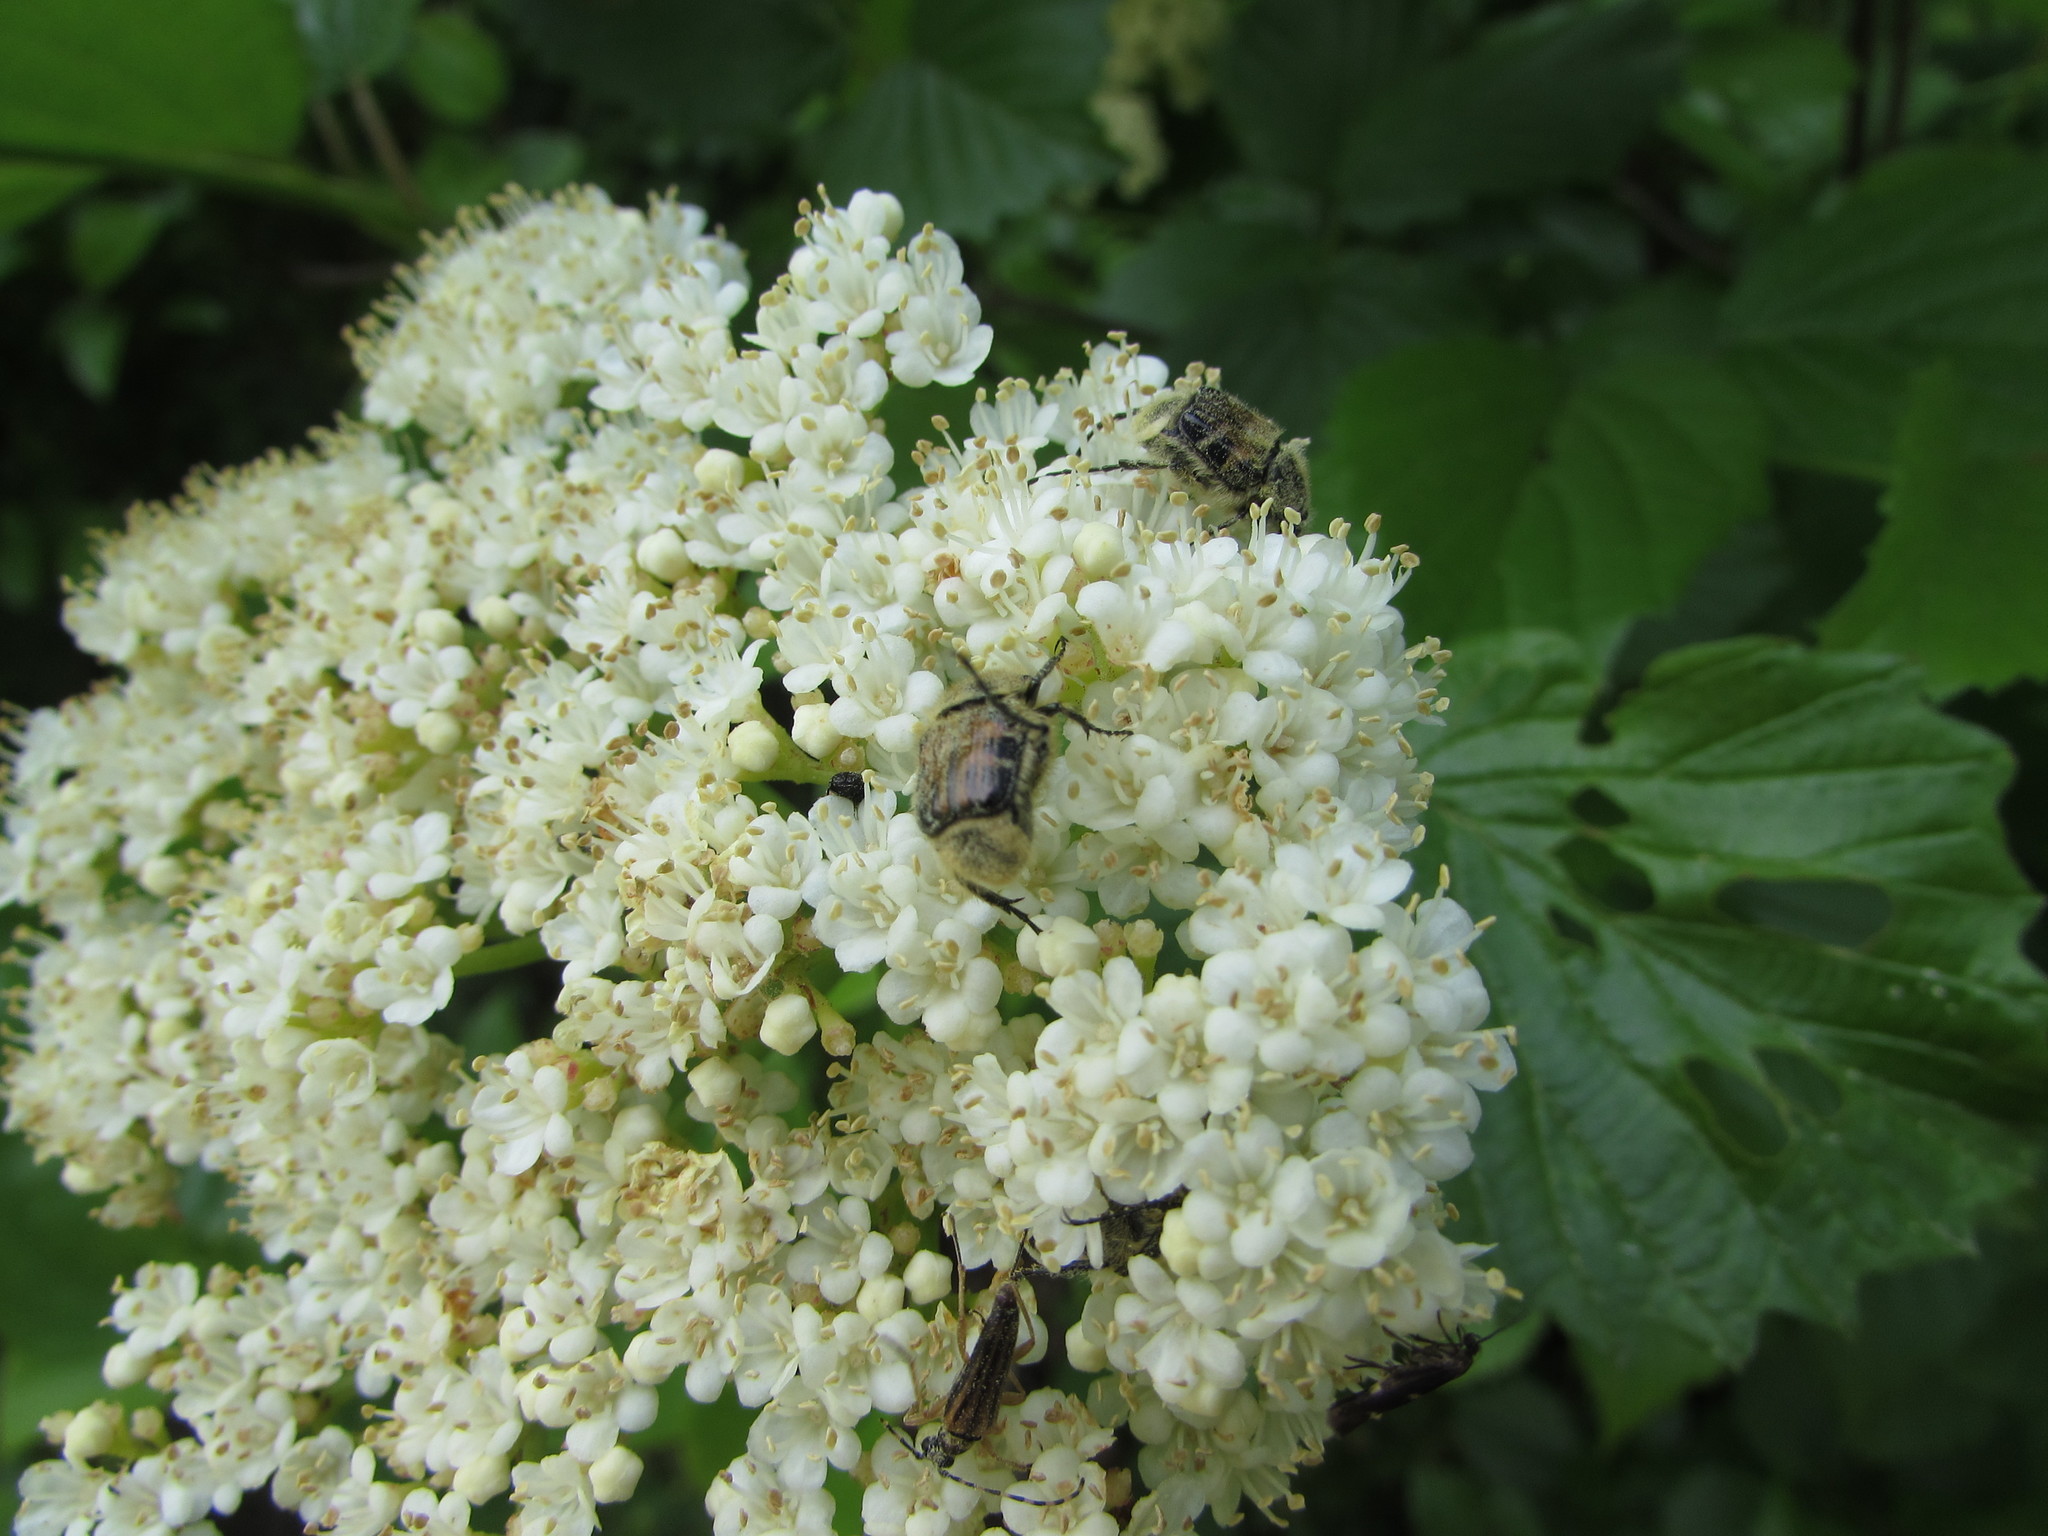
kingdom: Animalia
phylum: Arthropoda
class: Insecta
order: Coleoptera
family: Scarabaeidae
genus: Trichiotinus
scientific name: Trichiotinus affinis
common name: Hairy flower scarab
